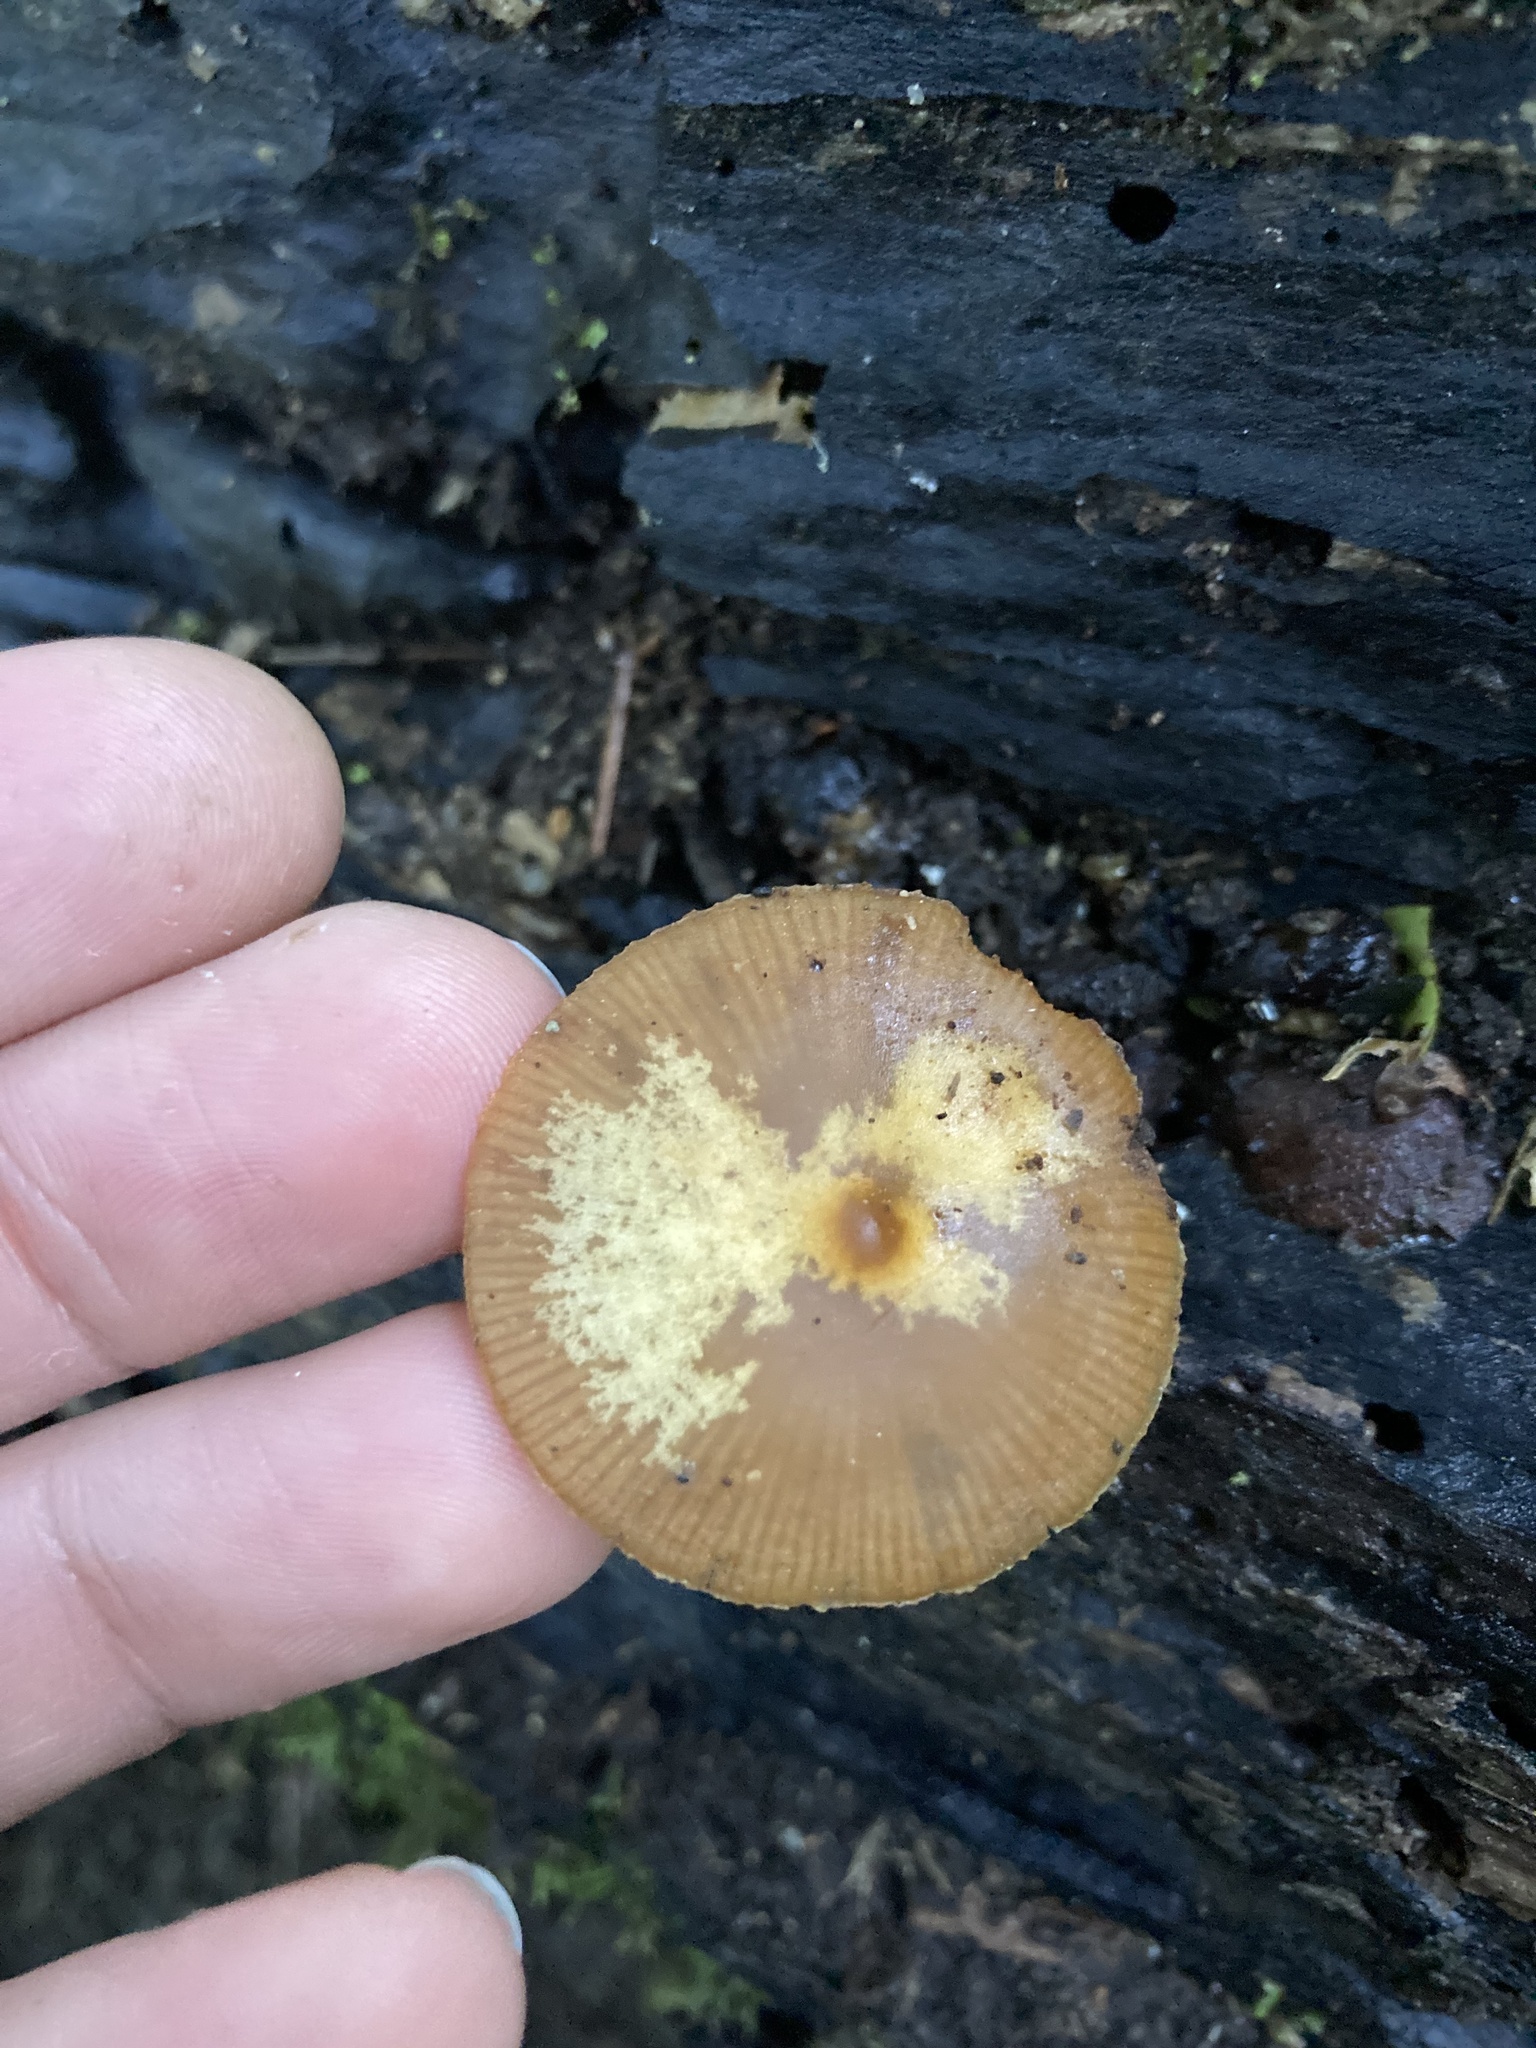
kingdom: Fungi
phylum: Basidiomycota
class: Agaricomycetes
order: Agaricales
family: Hymenogastraceae
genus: Galerina
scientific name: Galerina patagonica
